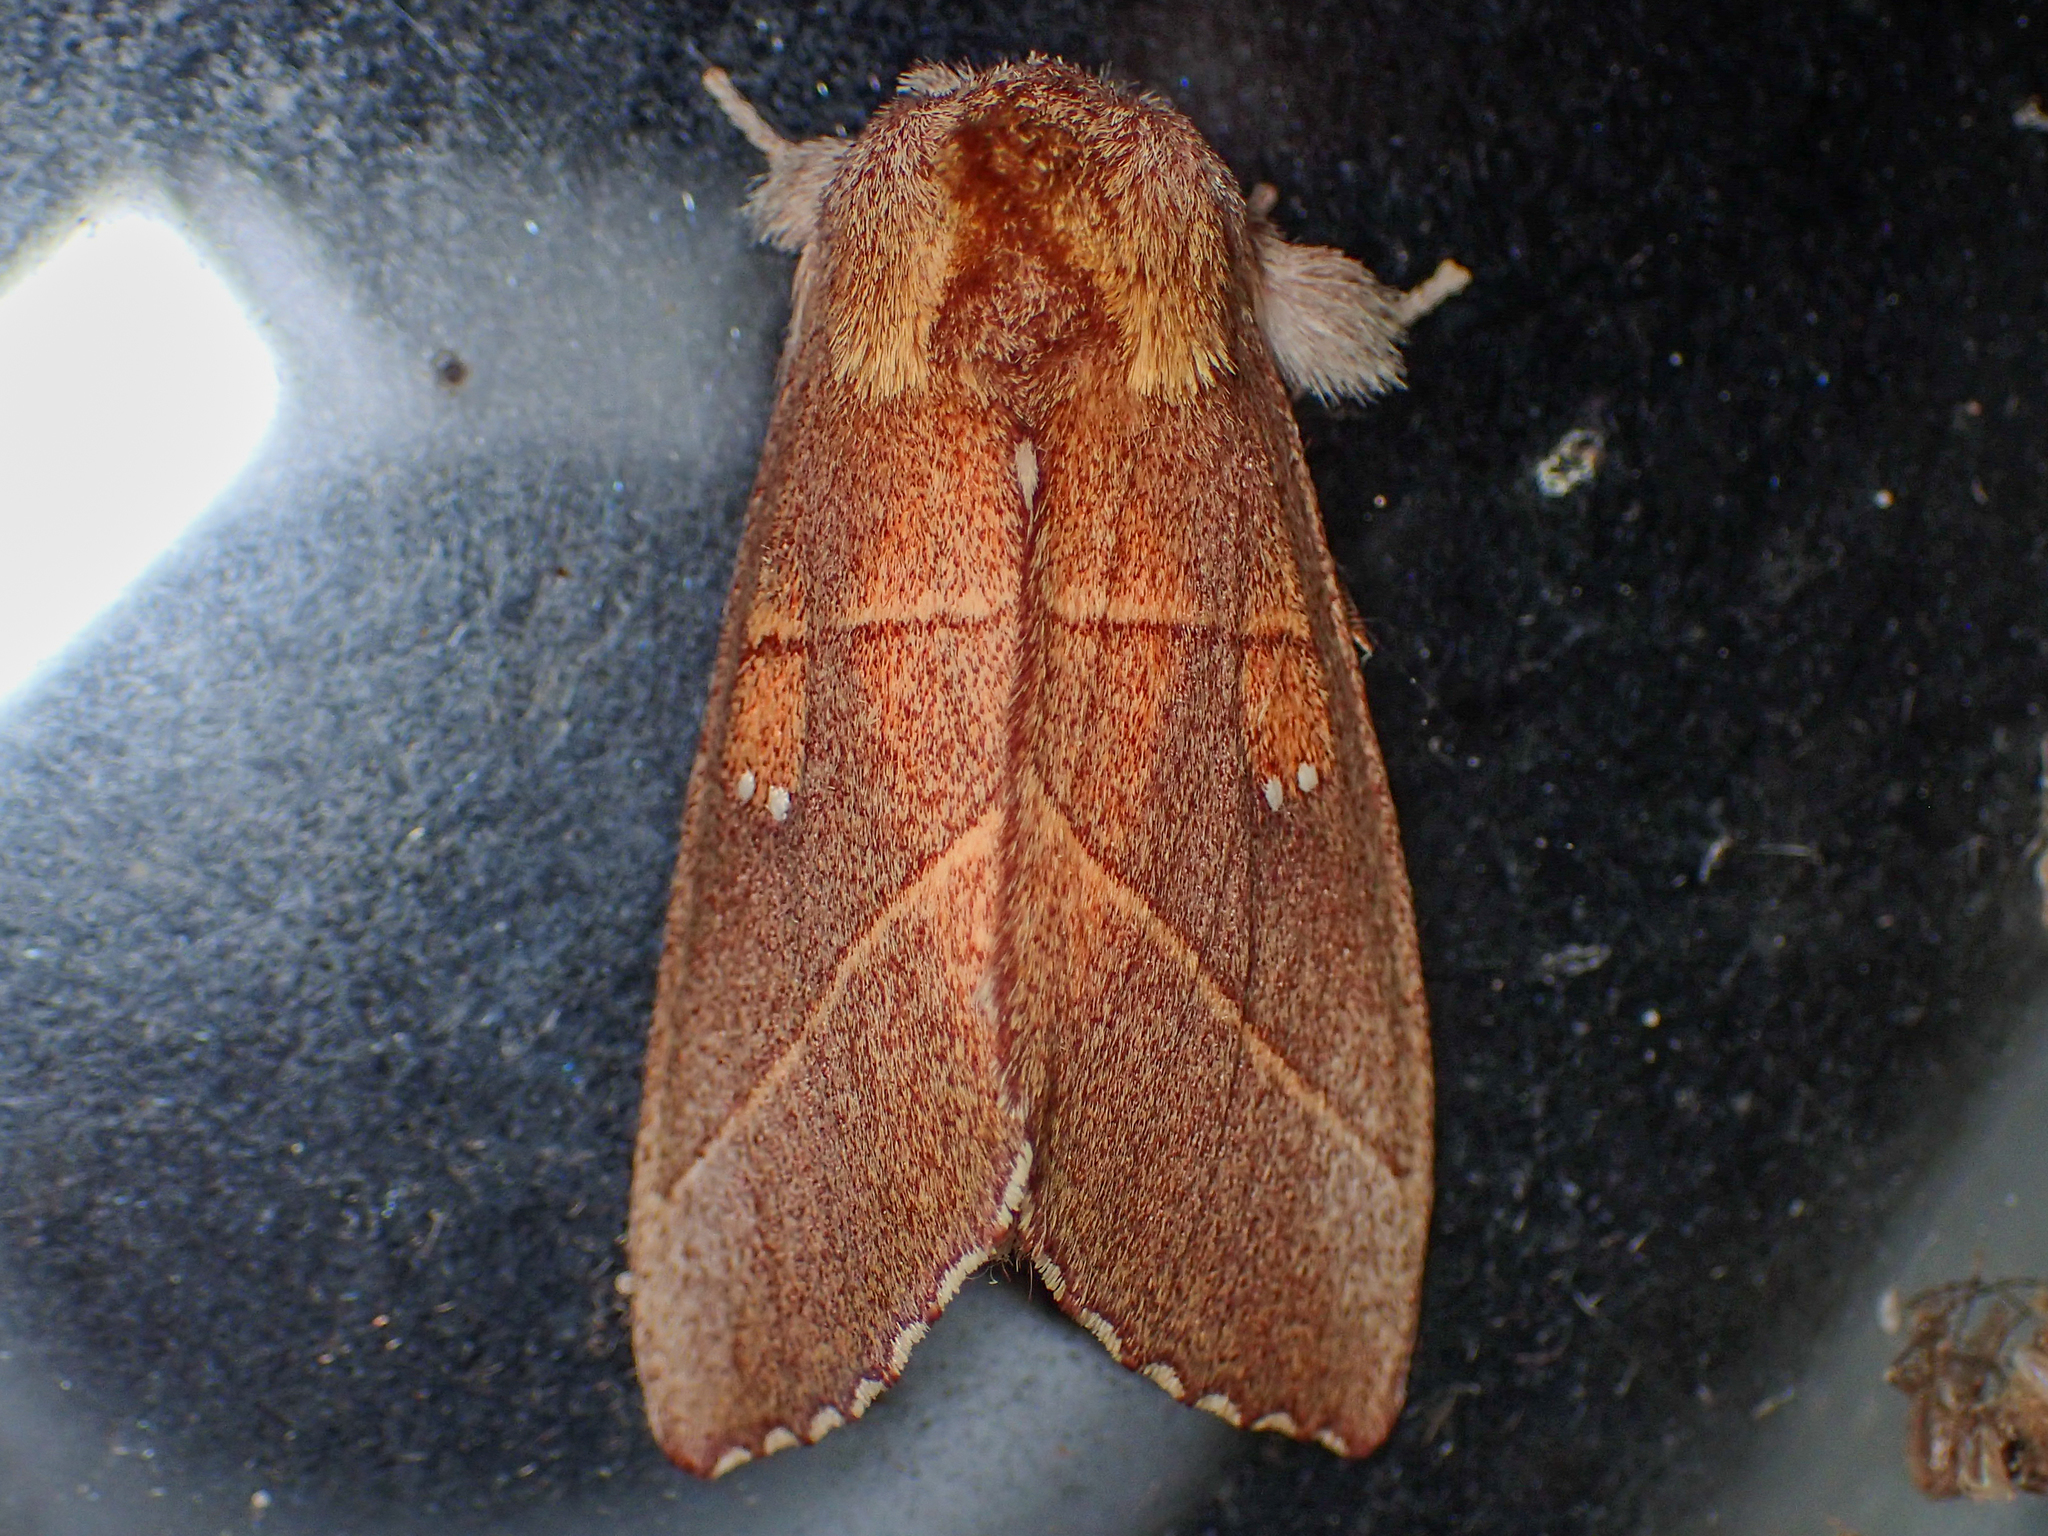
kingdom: Animalia
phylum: Arthropoda
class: Insecta
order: Lepidoptera
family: Notodontidae
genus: Nadata
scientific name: Nadata gibbosa
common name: White-dotted prominent
